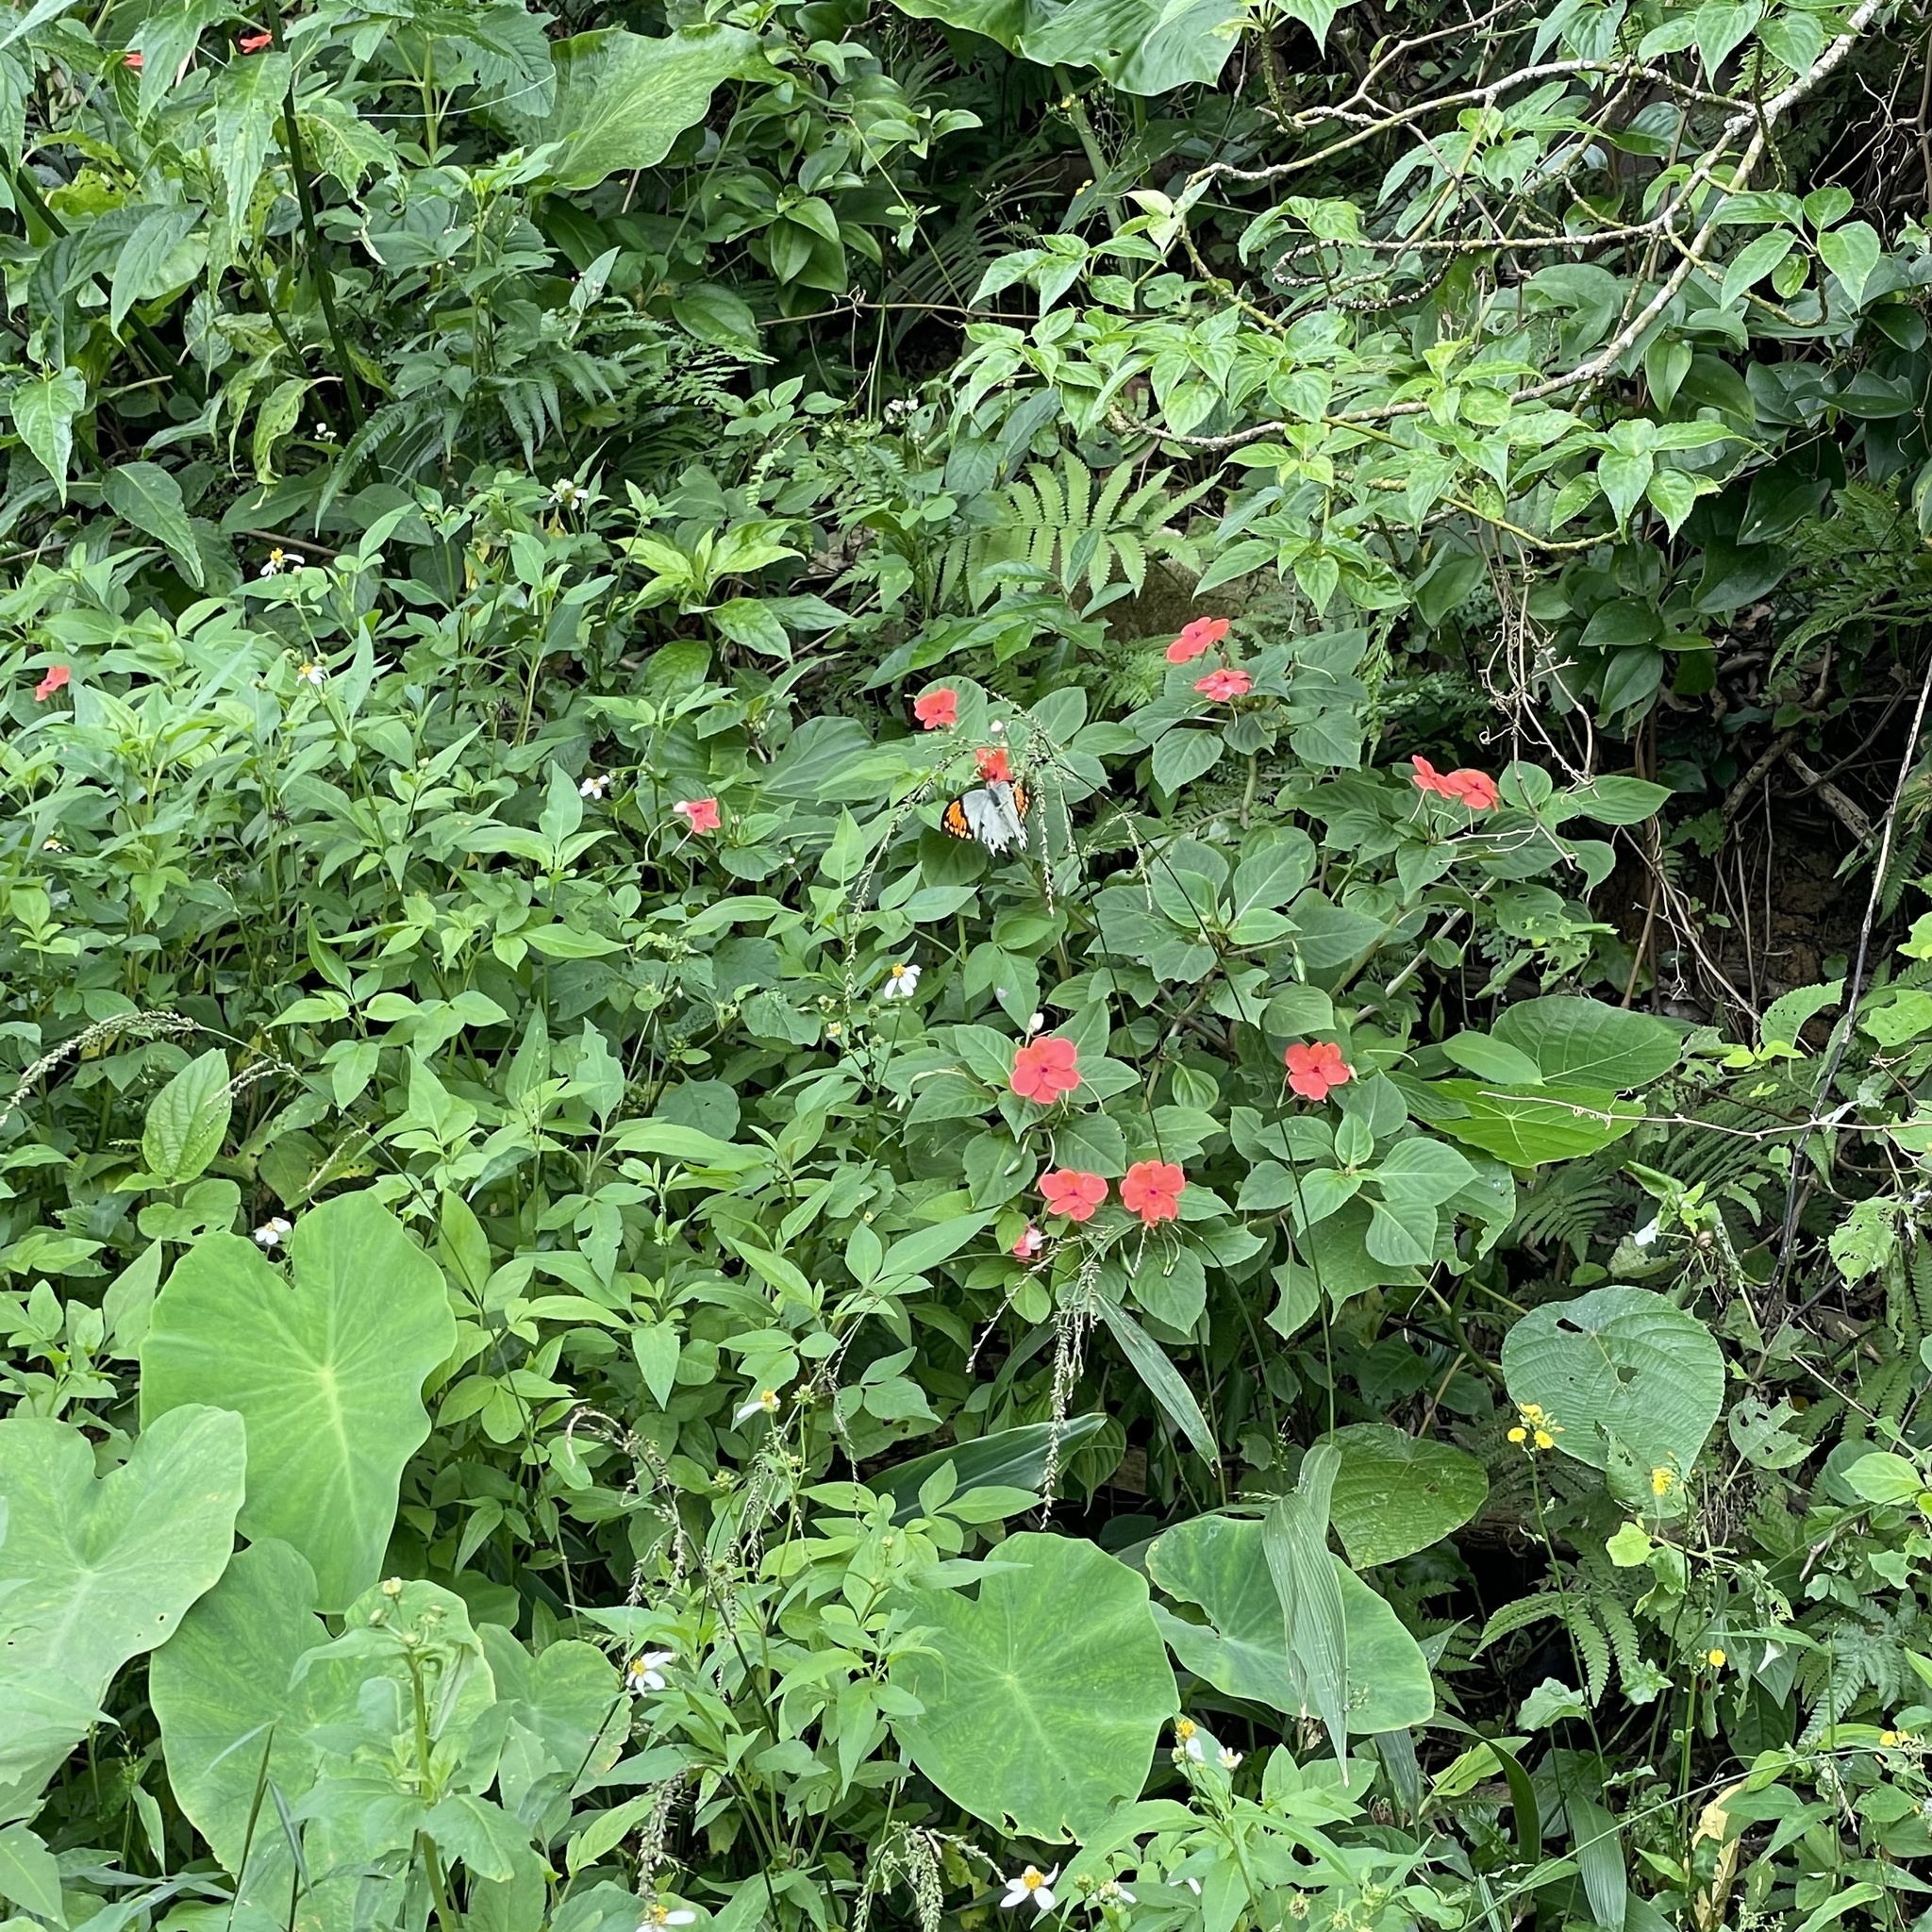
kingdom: Animalia
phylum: Arthropoda
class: Insecta
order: Lepidoptera
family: Pieridae
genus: Hebomoia
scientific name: Hebomoia glaucippe
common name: Great orange tip
